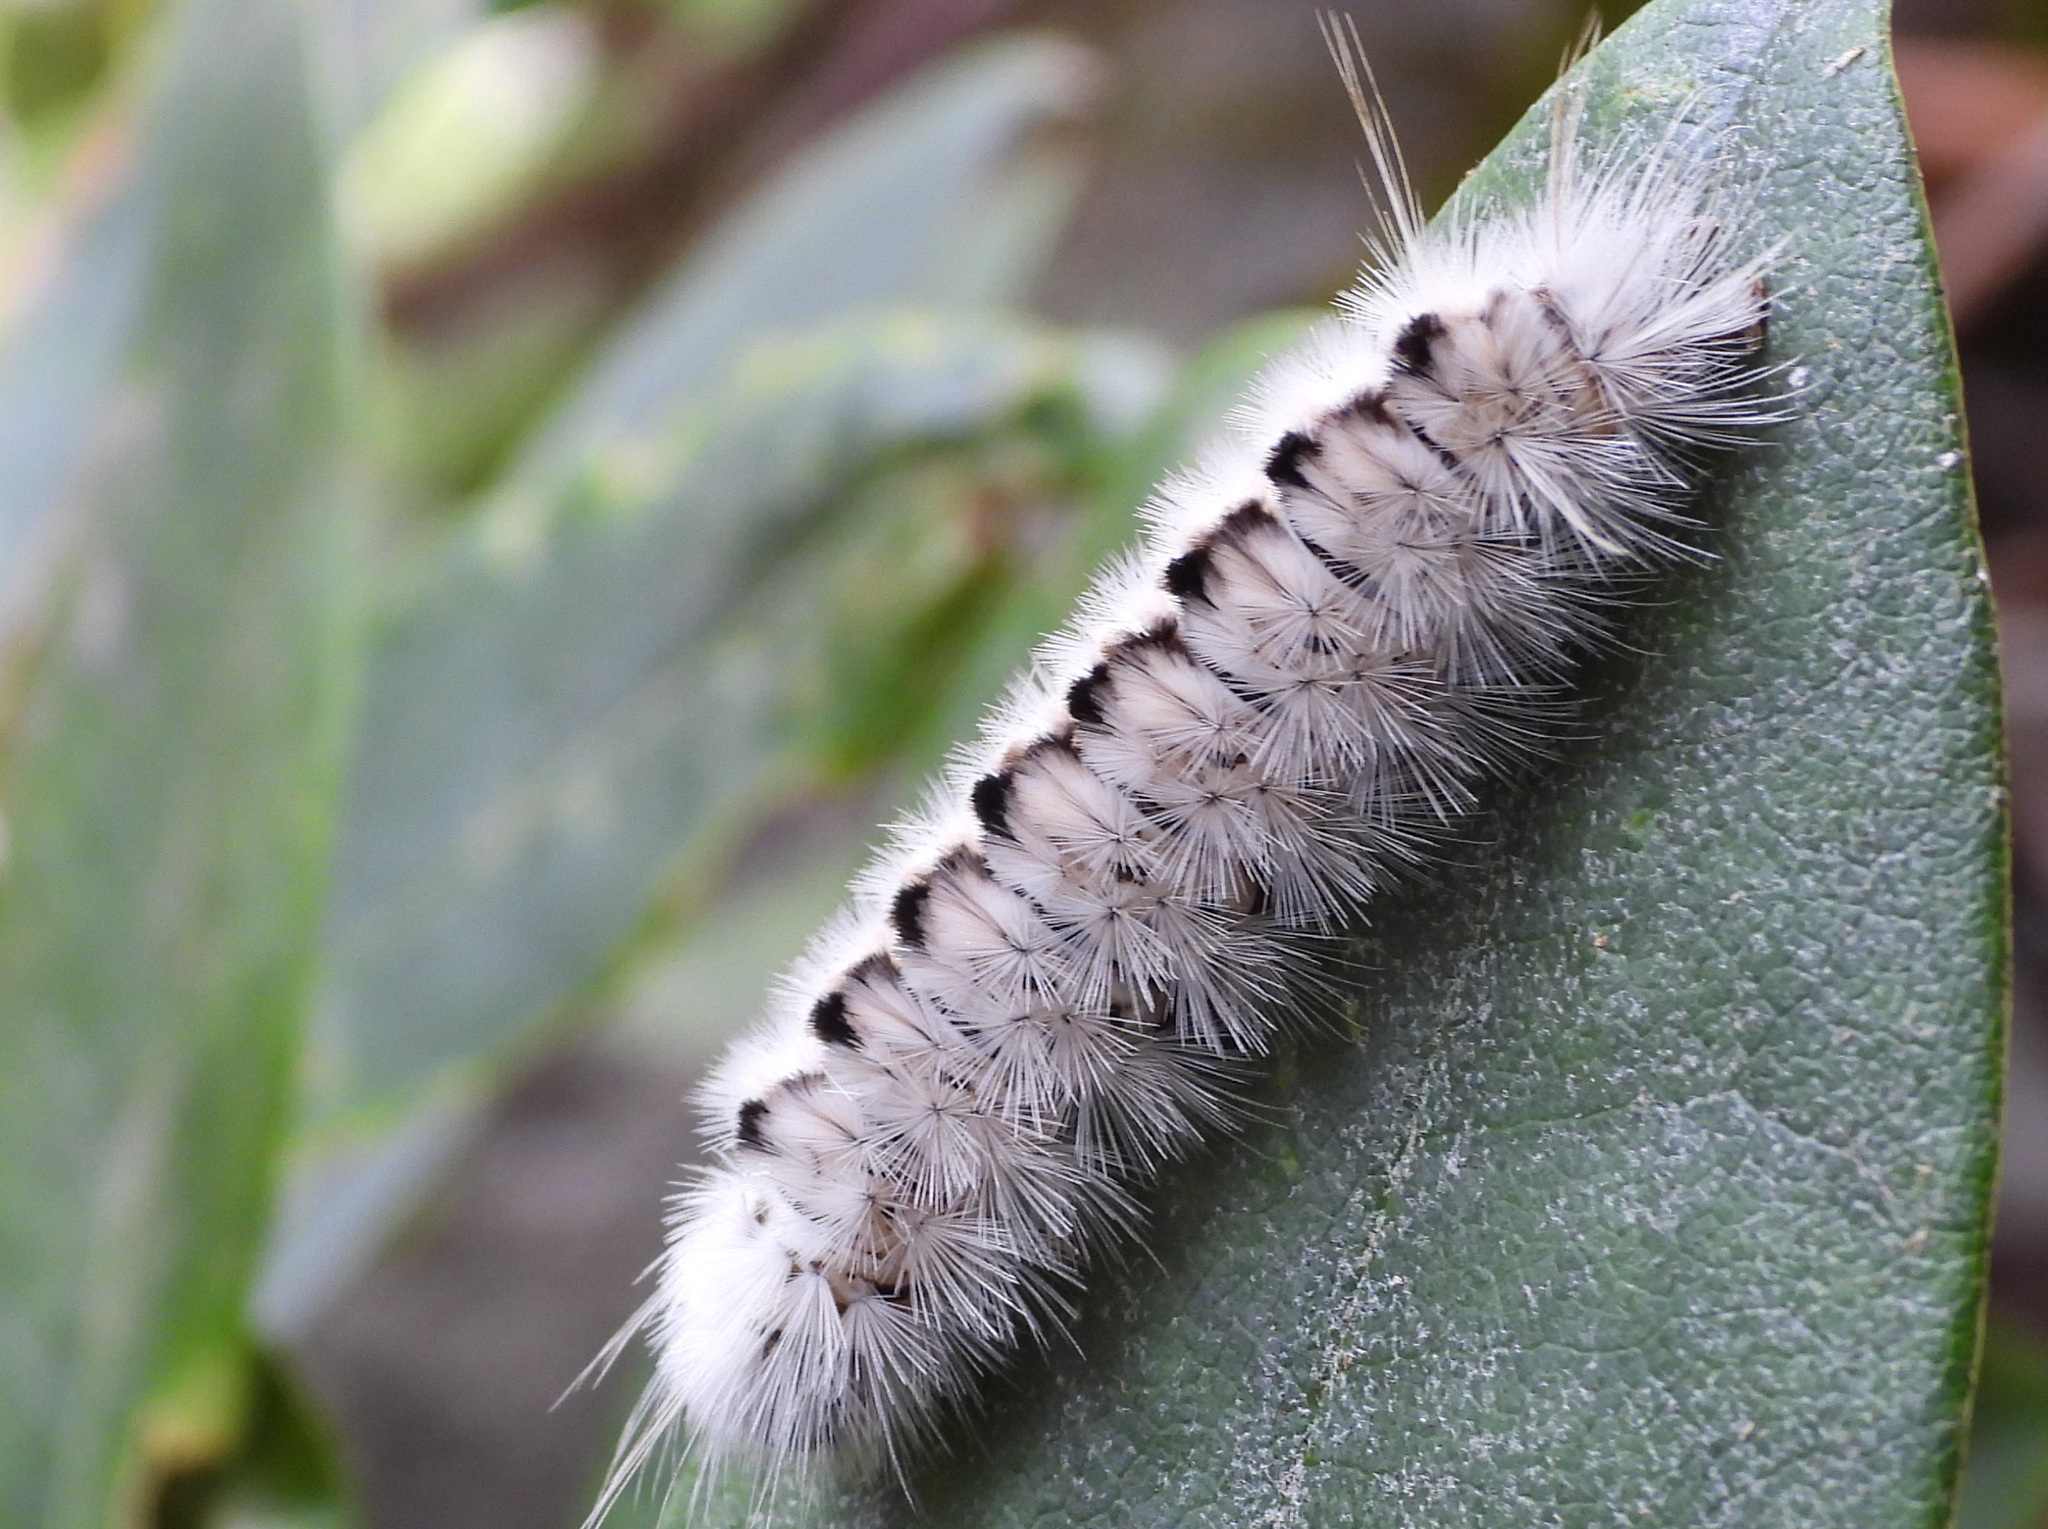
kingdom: Animalia
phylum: Arthropoda
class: Insecta
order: Lepidoptera
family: Erebidae
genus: Lophocampa
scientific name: Lophocampa caryae
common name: Hickory tussock moth
